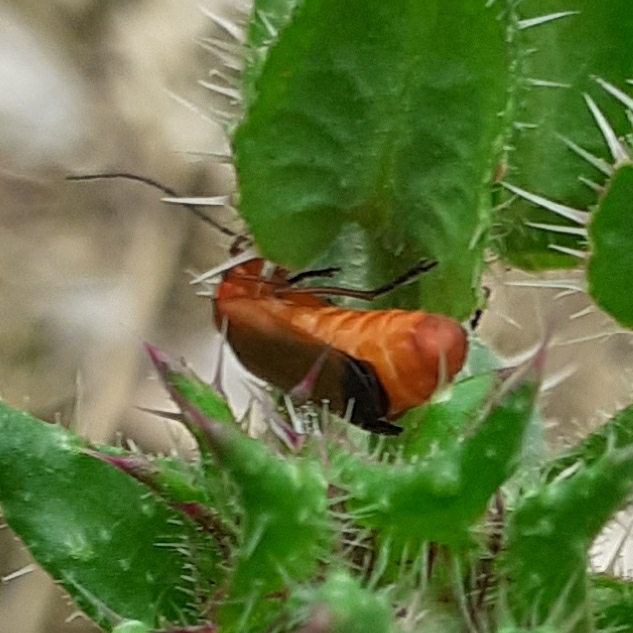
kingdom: Animalia
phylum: Arthropoda
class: Insecta
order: Coleoptera
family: Cantharidae
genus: Rhagonycha
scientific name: Rhagonycha fulva
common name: Common red soldier beetle
